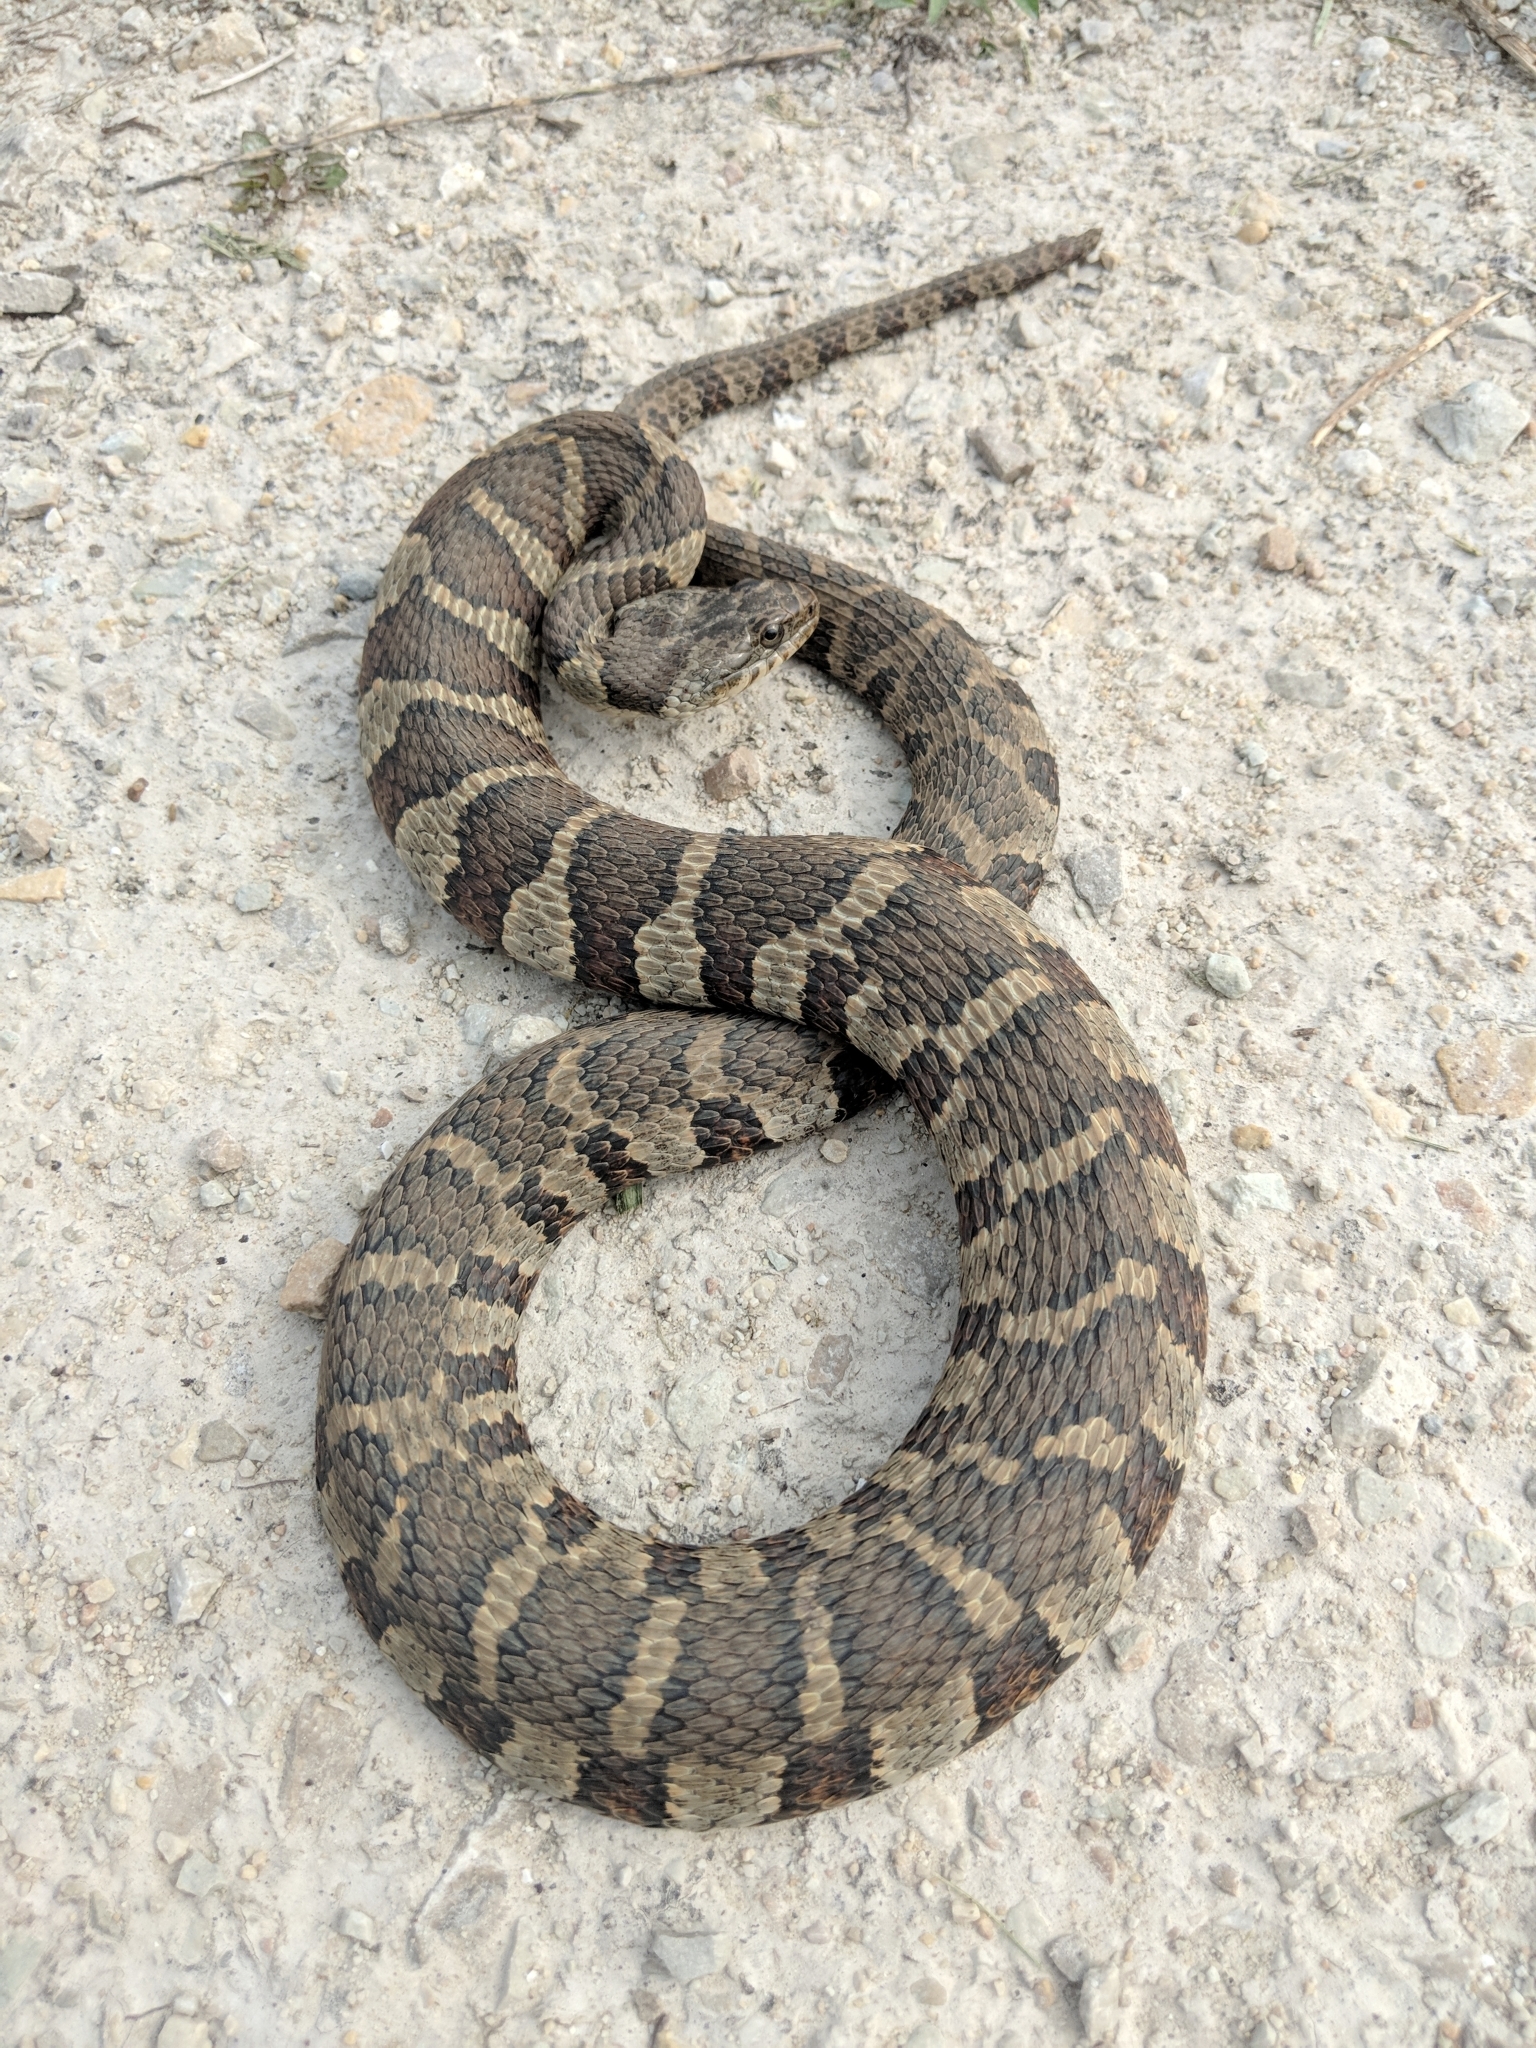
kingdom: Animalia
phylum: Chordata
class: Squamata
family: Colubridae
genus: Nerodia
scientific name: Nerodia sipedon
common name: Northern water snake
